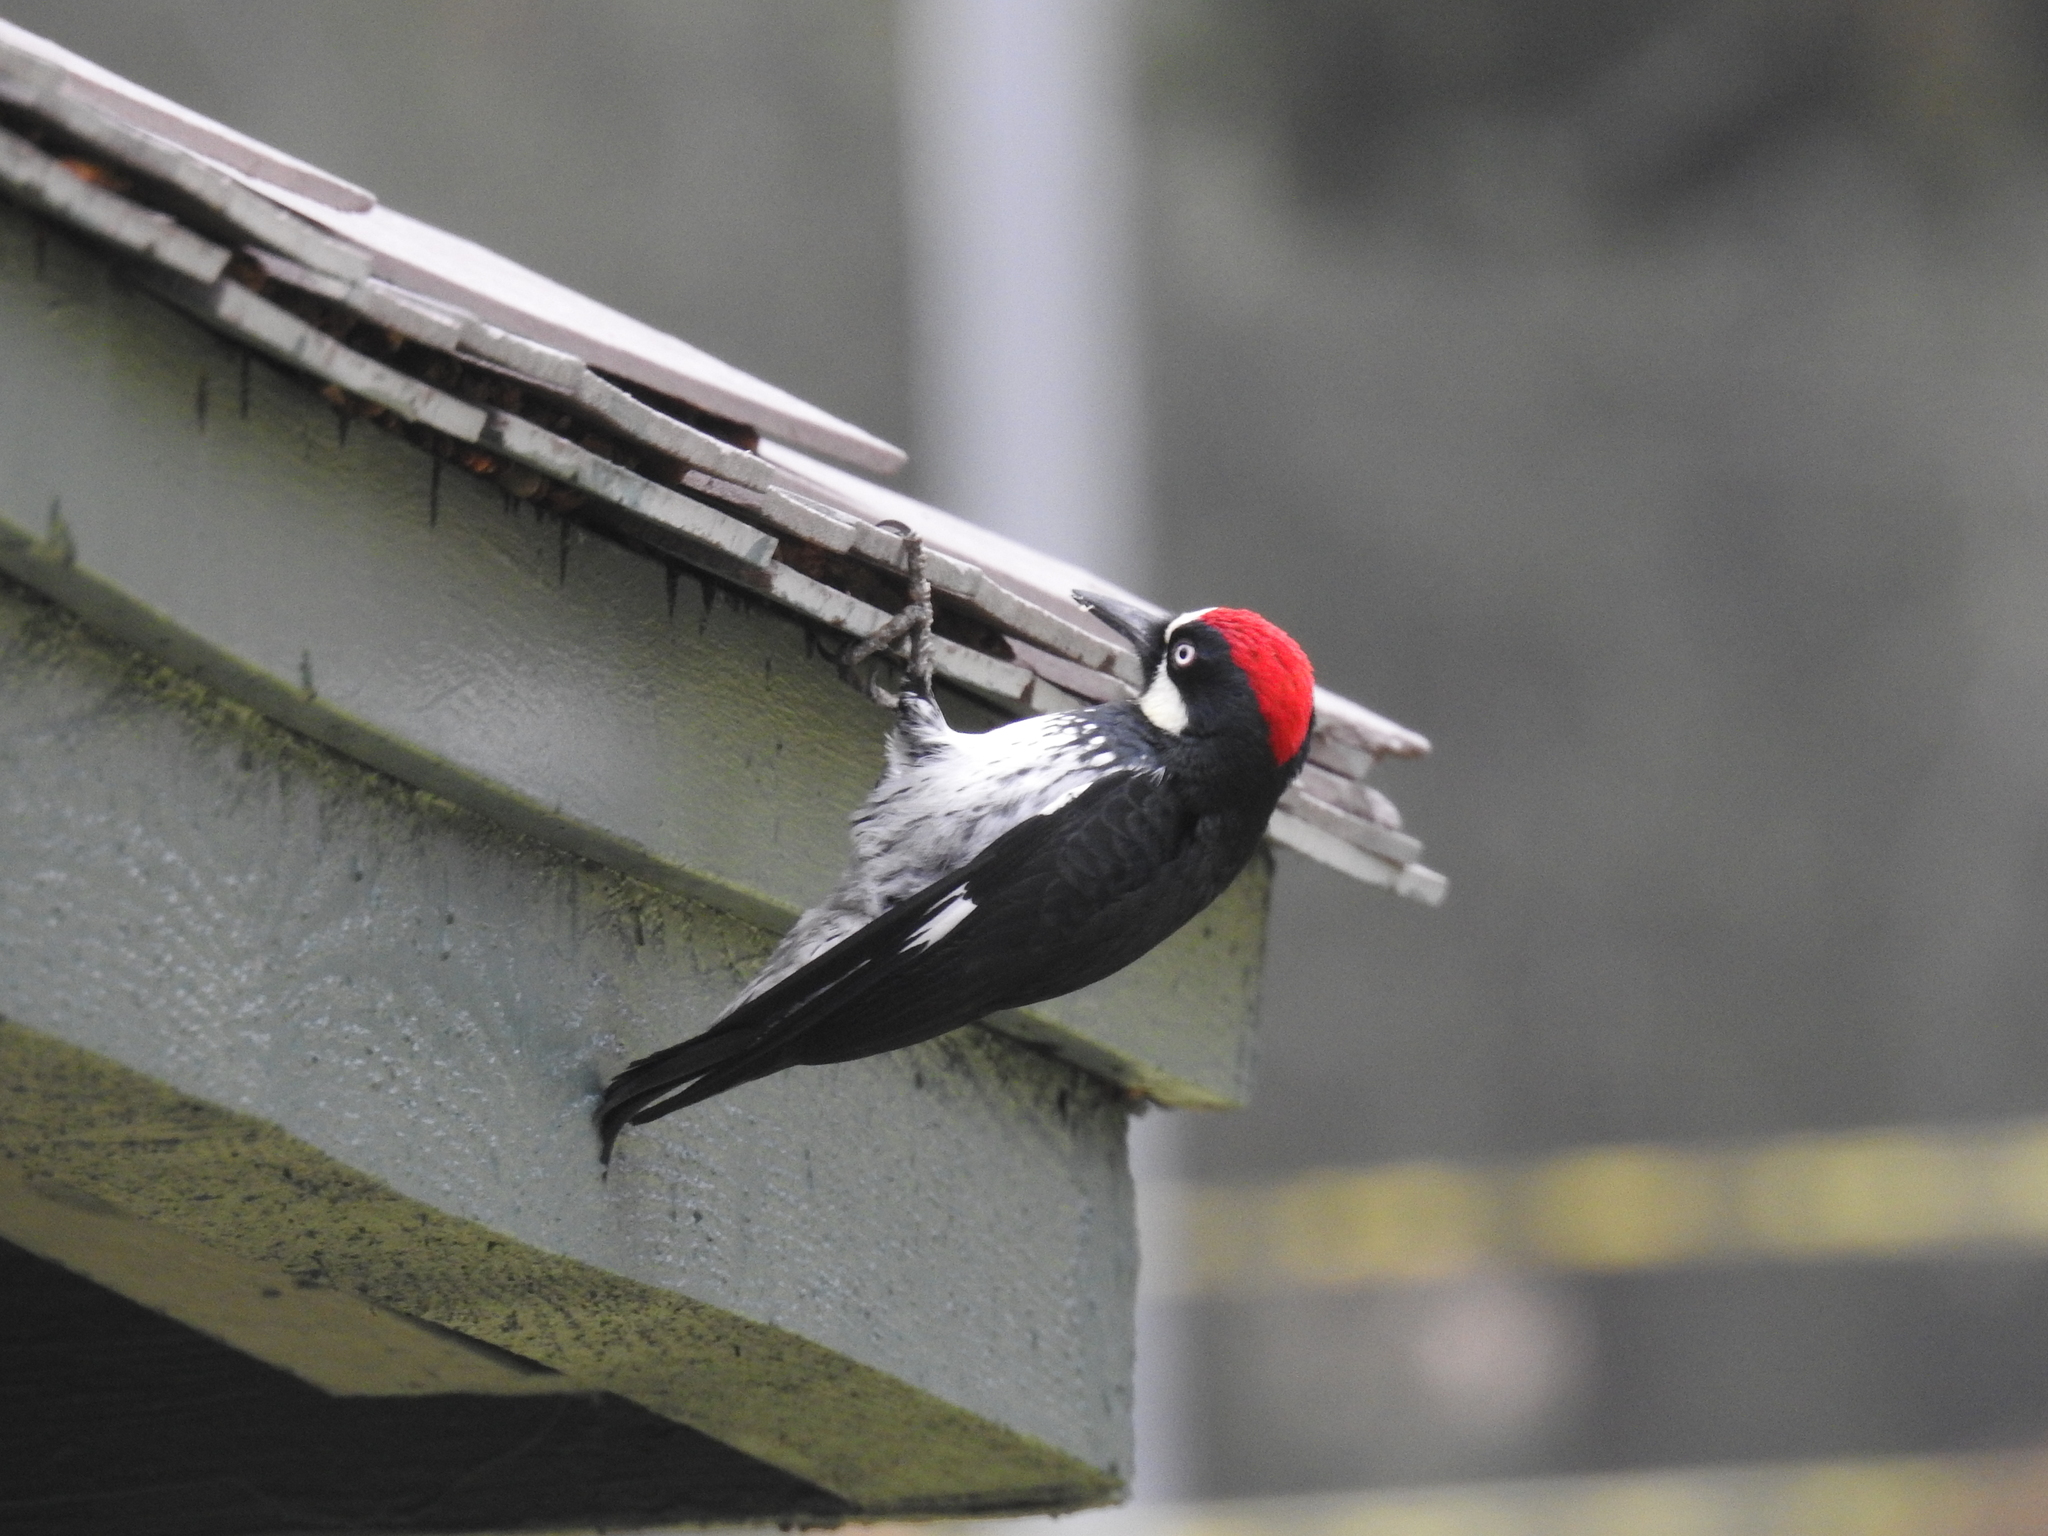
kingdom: Animalia
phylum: Chordata
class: Aves
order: Piciformes
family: Picidae
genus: Melanerpes
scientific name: Melanerpes formicivorus
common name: Acorn woodpecker
